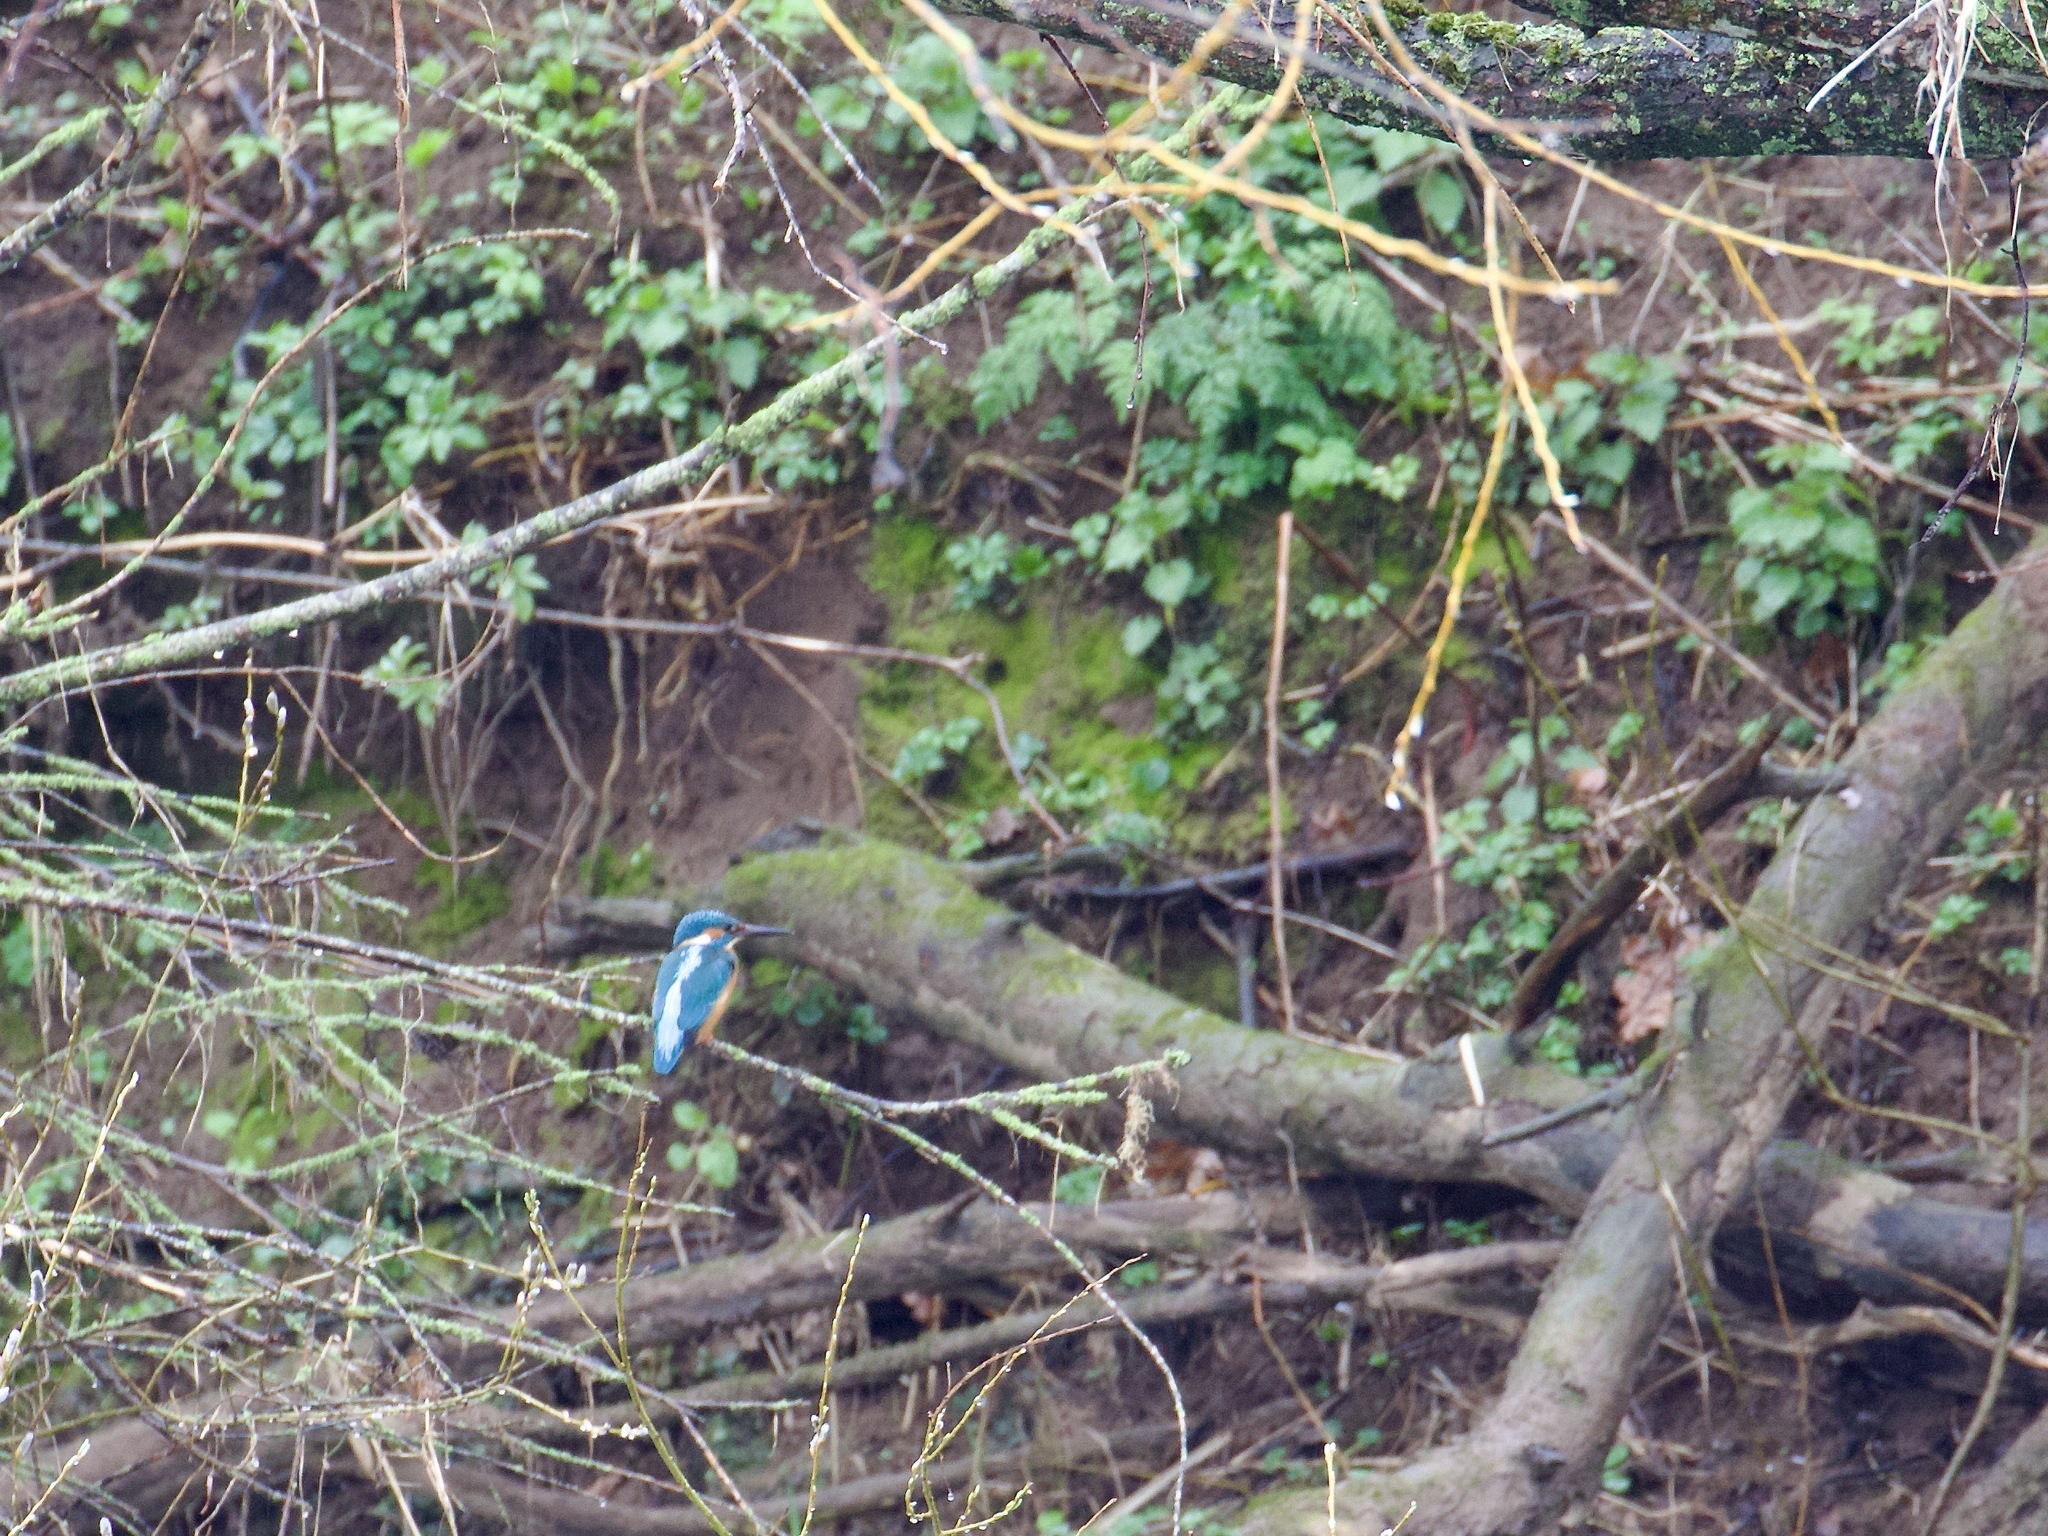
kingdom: Animalia
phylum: Chordata
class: Aves
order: Coraciiformes
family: Alcedinidae
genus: Alcedo
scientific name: Alcedo atthis
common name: Common kingfisher
